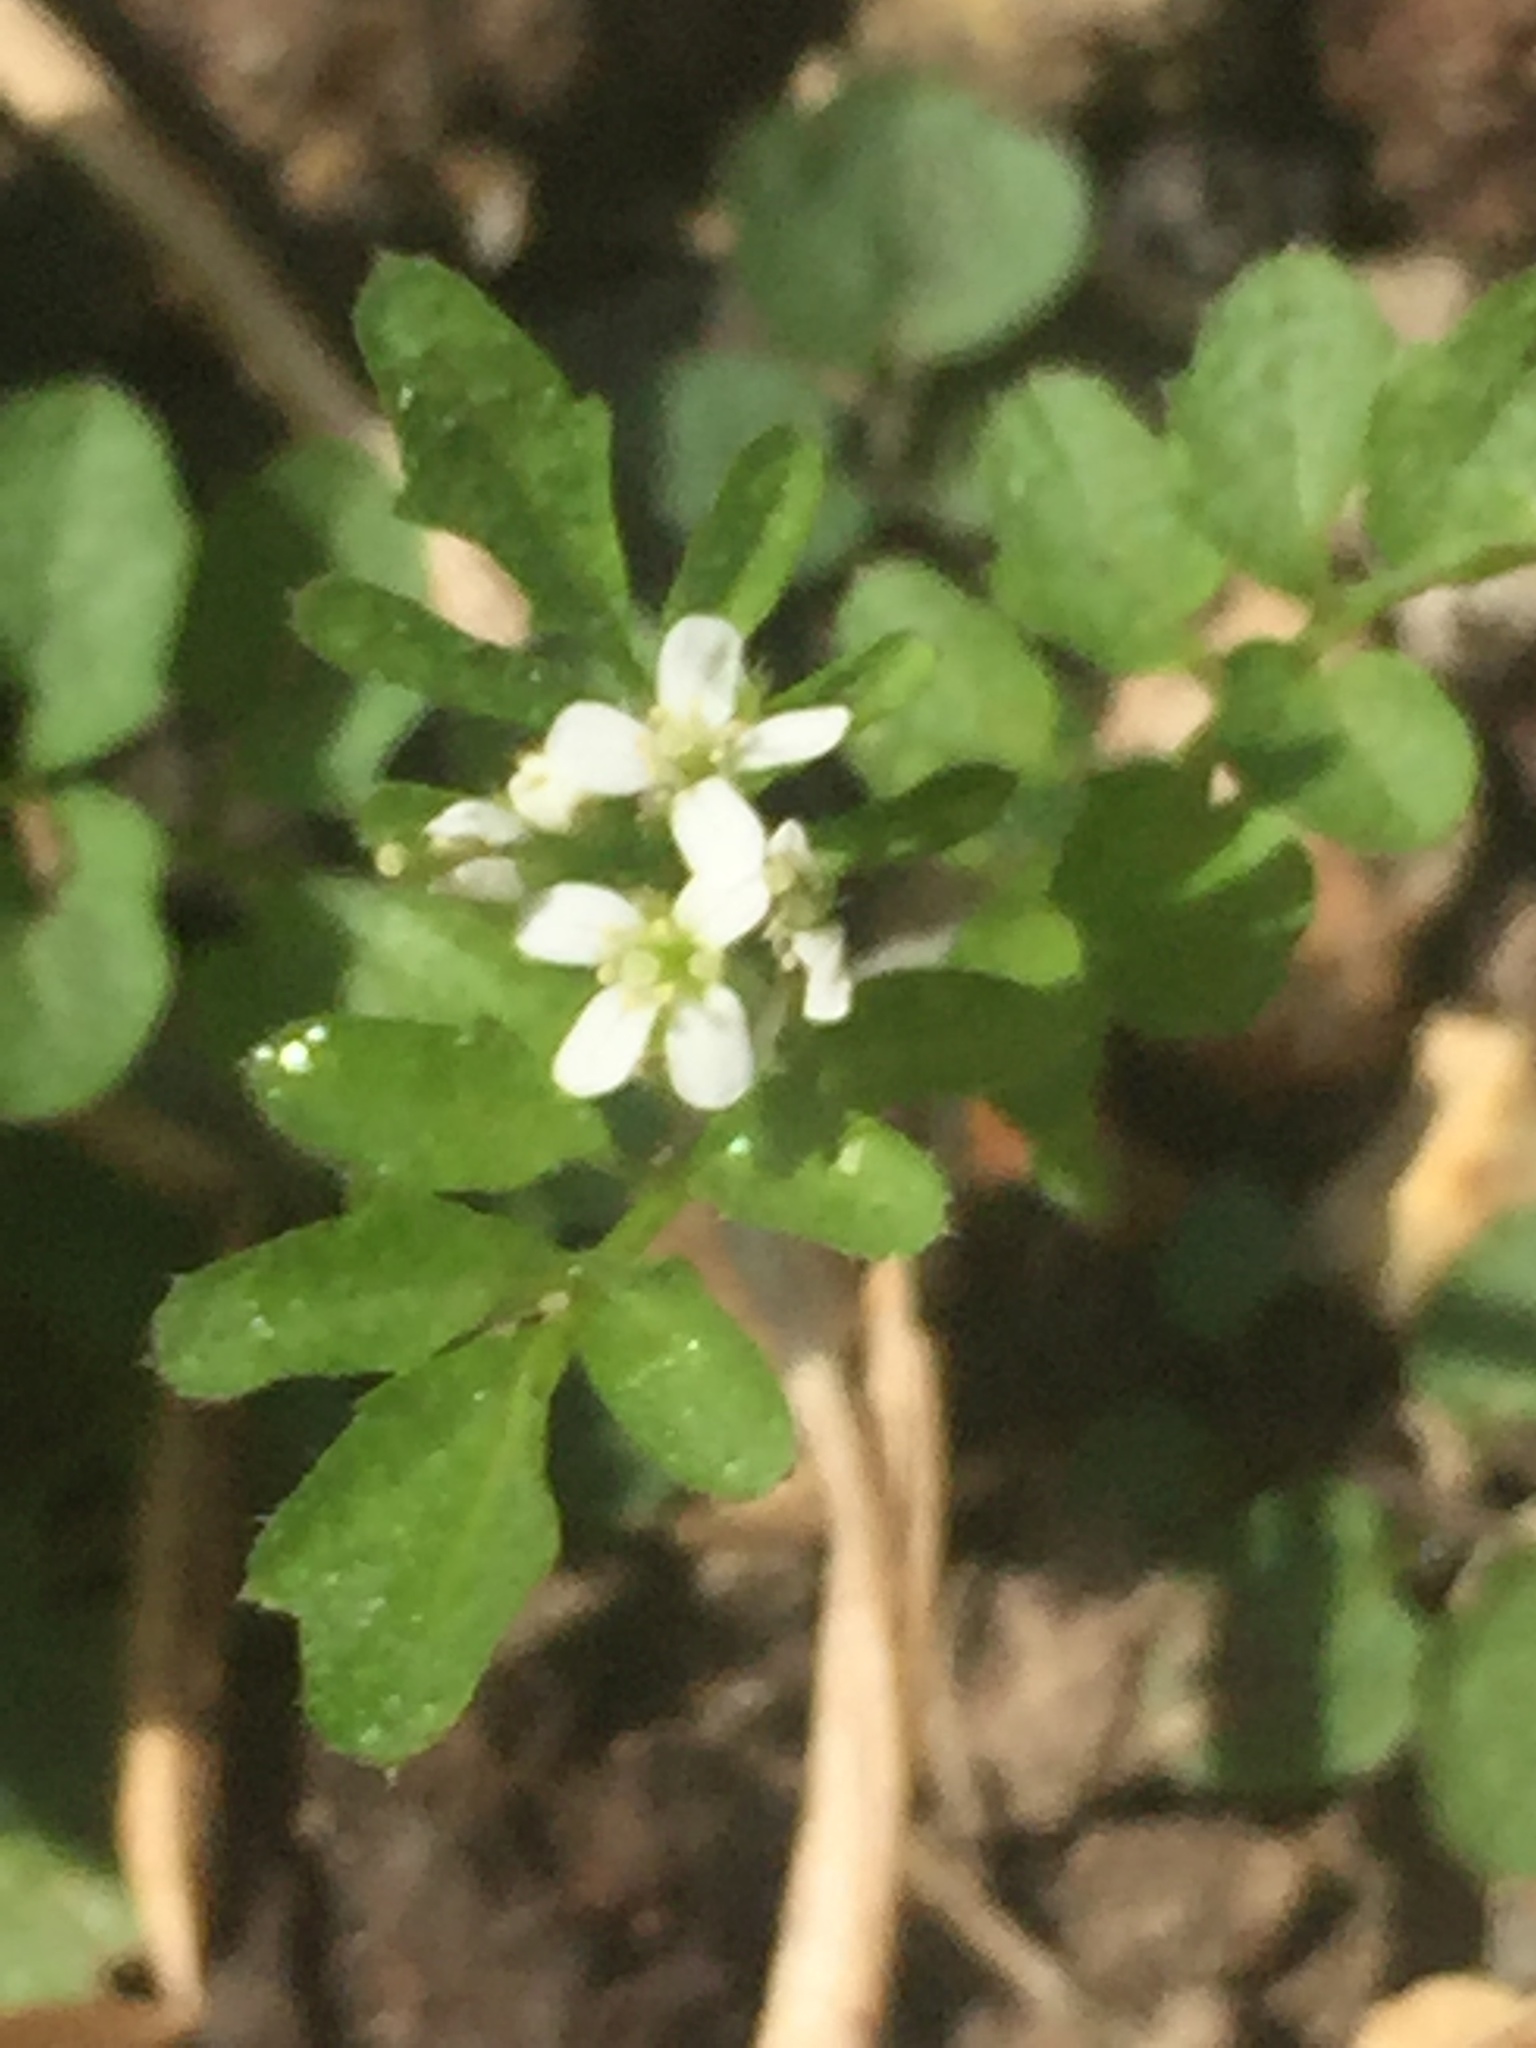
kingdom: Plantae
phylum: Tracheophyta
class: Magnoliopsida
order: Brassicales
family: Brassicaceae
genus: Cardamine
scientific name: Cardamine flexuosa
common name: Woodland bittercress
